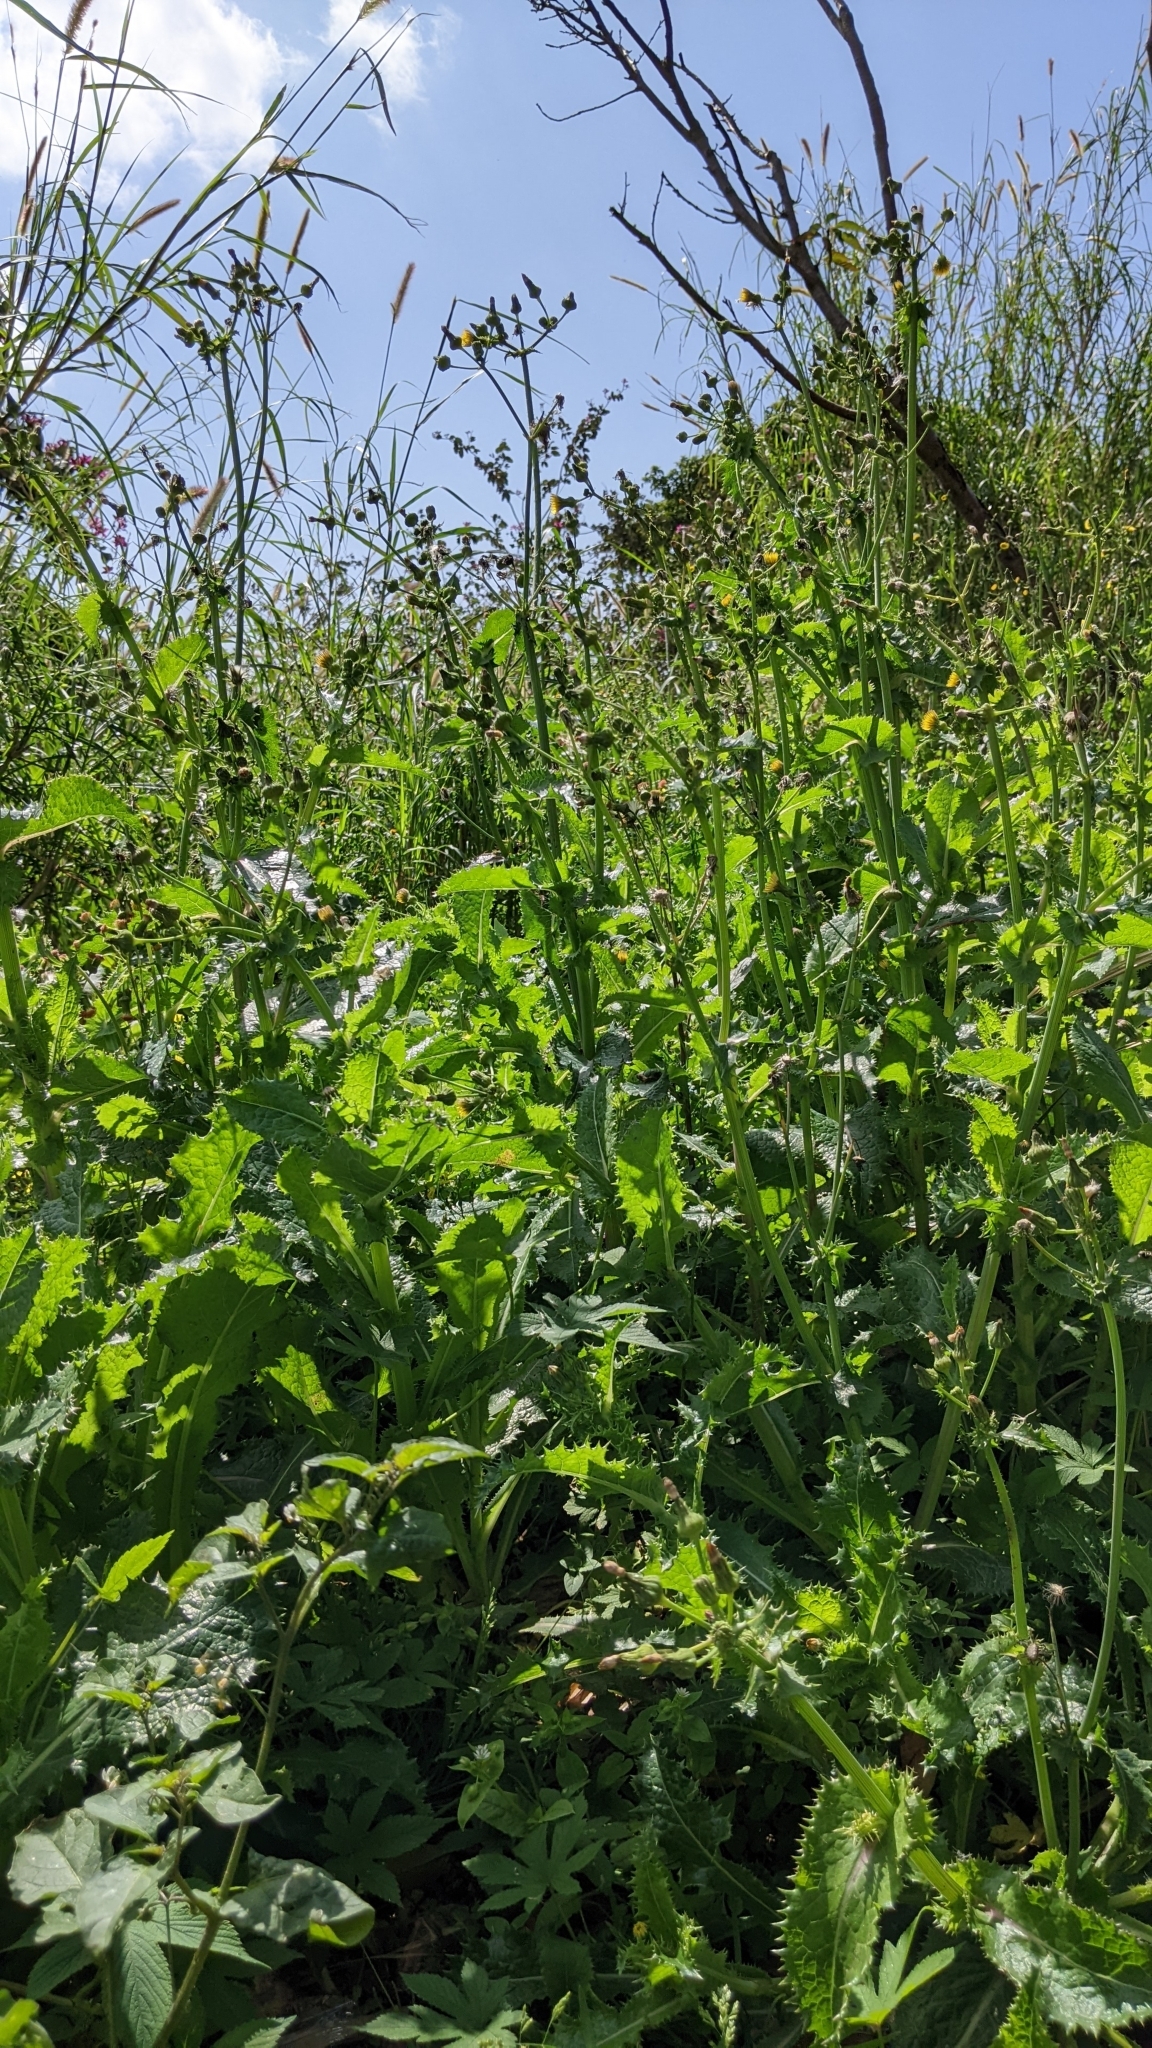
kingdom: Plantae
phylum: Tracheophyta
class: Magnoliopsida
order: Asterales
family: Asteraceae
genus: Sonchus
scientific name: Sonchus asper
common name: Prickly sow-thistle
